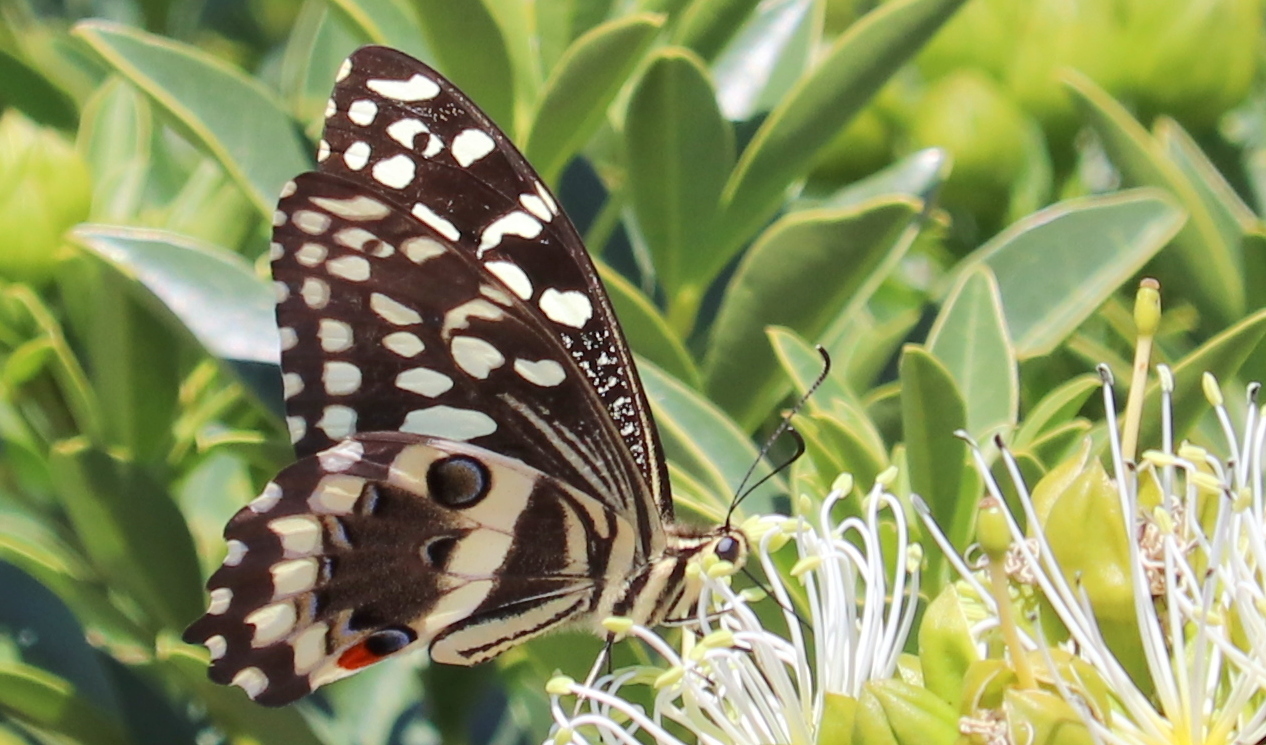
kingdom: Animalia
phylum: Arthropoda
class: Insecta
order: Lepidoptera
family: Papilionidae
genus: Papilio
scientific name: Papilio demodocus
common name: Christmas butterfly
